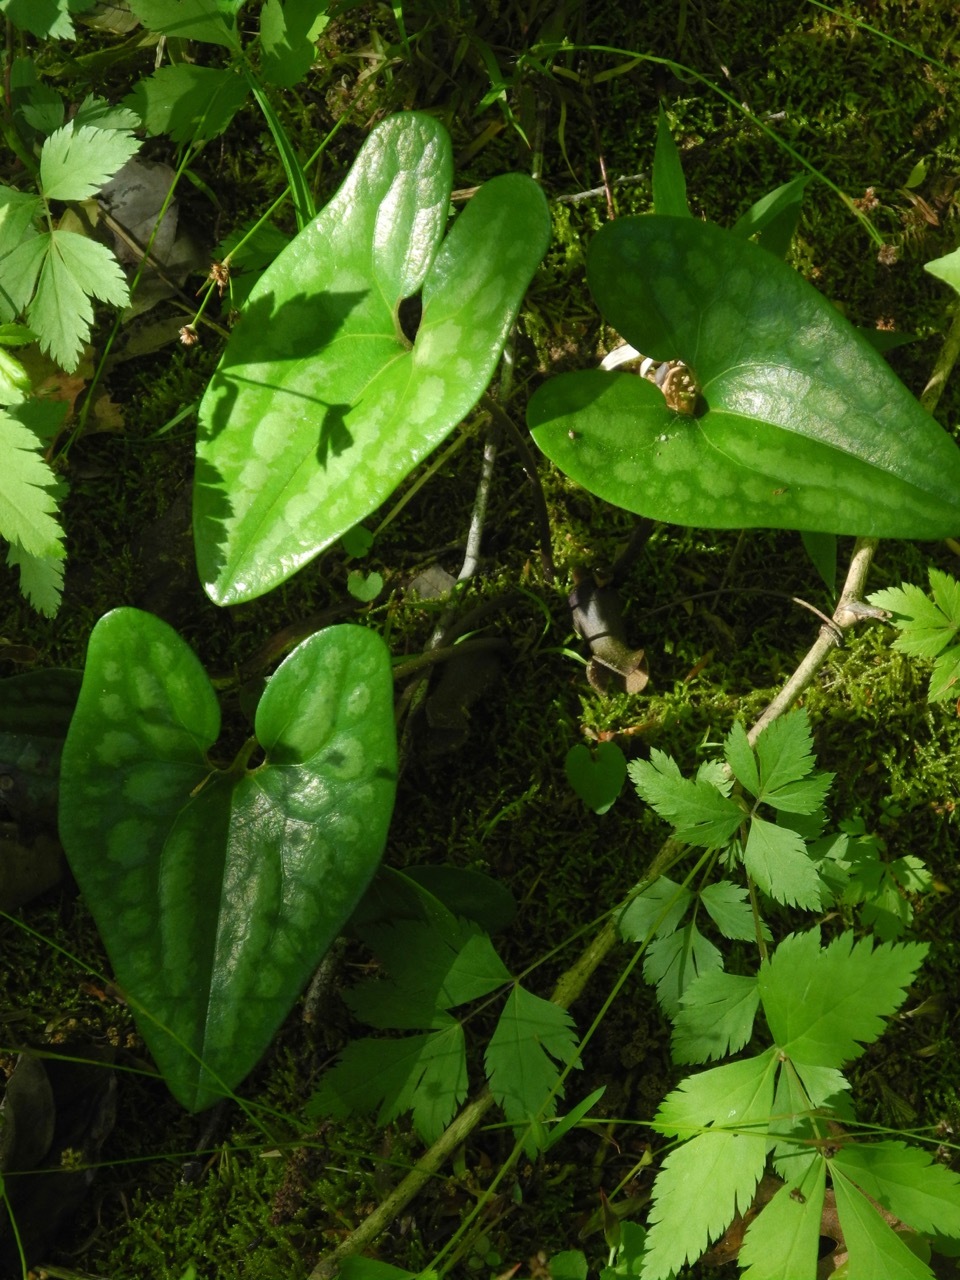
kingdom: Plantae
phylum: Tracheophyta
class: Magnoliopsida
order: Piperales
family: Aristolochiaceae
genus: Hexastylis
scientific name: Hexastylis arifolia
